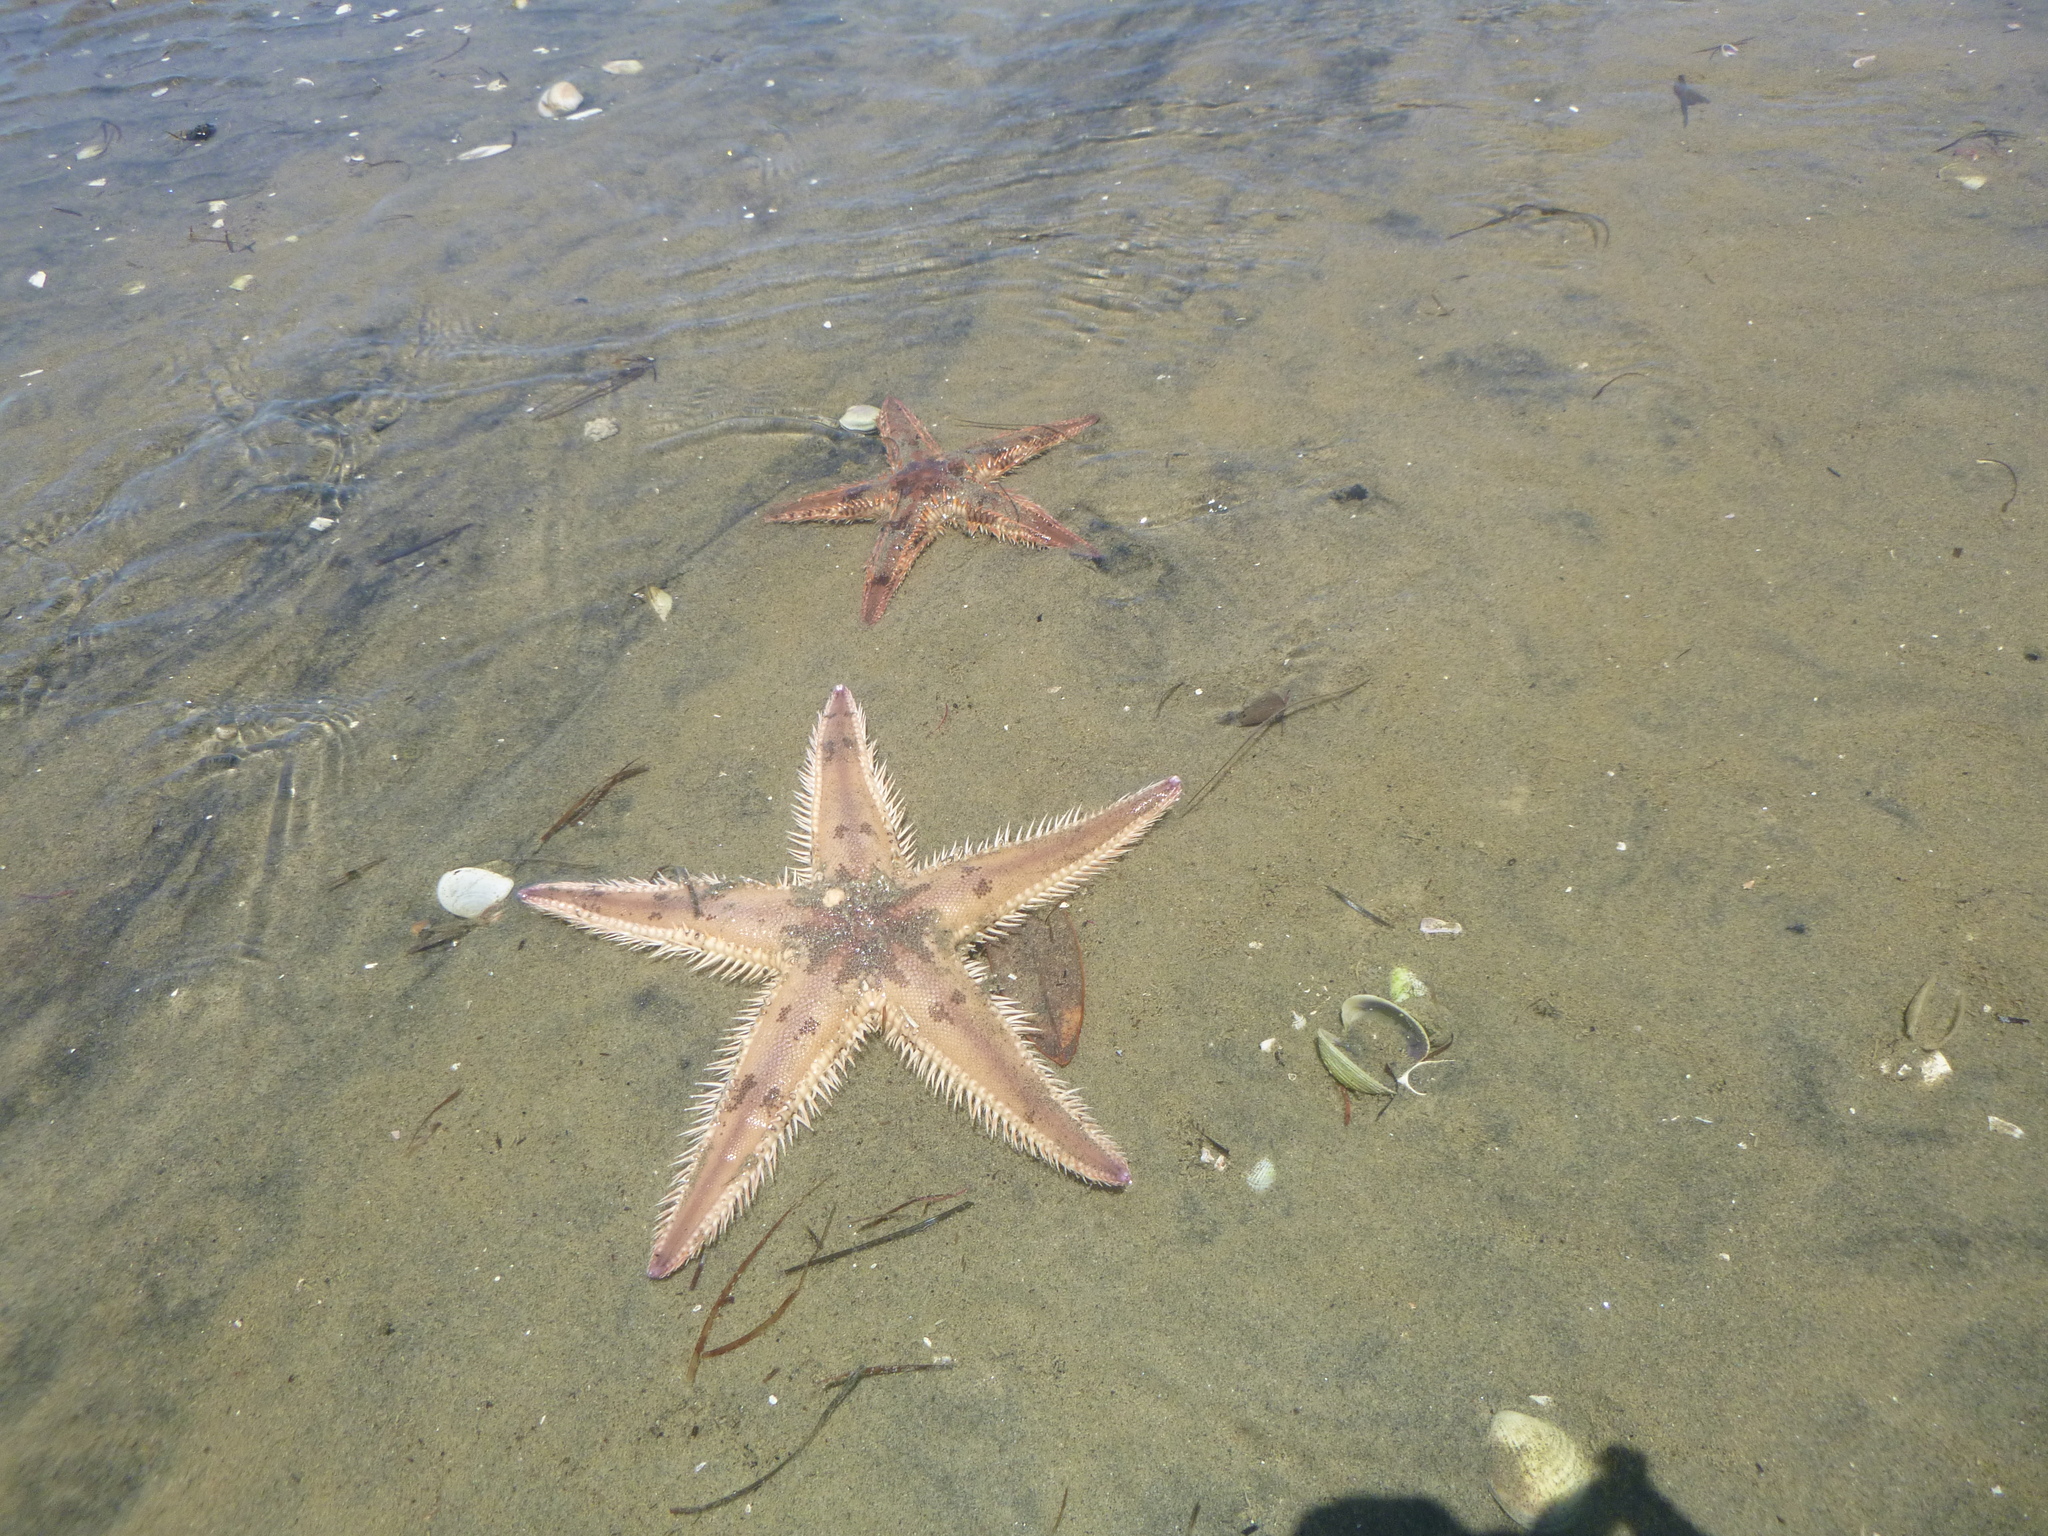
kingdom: Animalia
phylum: Echinodermata
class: Asteroidea
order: Paxillosida
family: Astropectinidae
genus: Astropecten
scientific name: Astropecten polyacanthus
